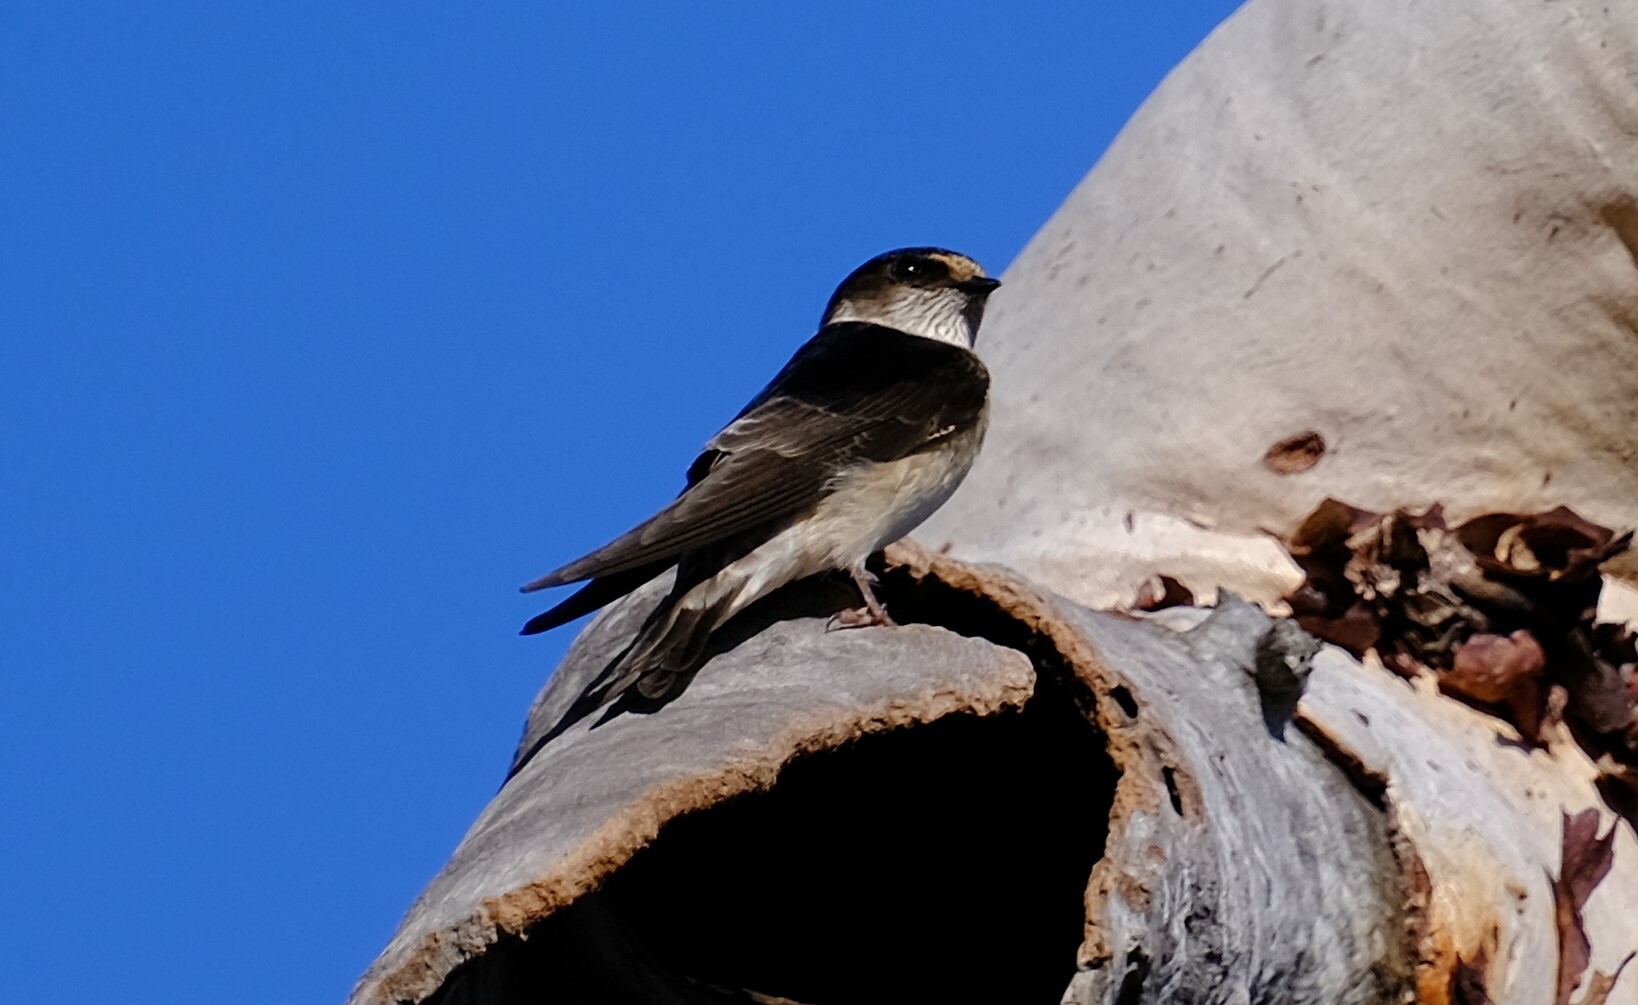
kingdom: Animalia
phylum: Chordata
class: Aves
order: Passeriformes
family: Hirundinidae
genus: Petrochelidon
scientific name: Petrochelidon nigricans
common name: Tree martin
